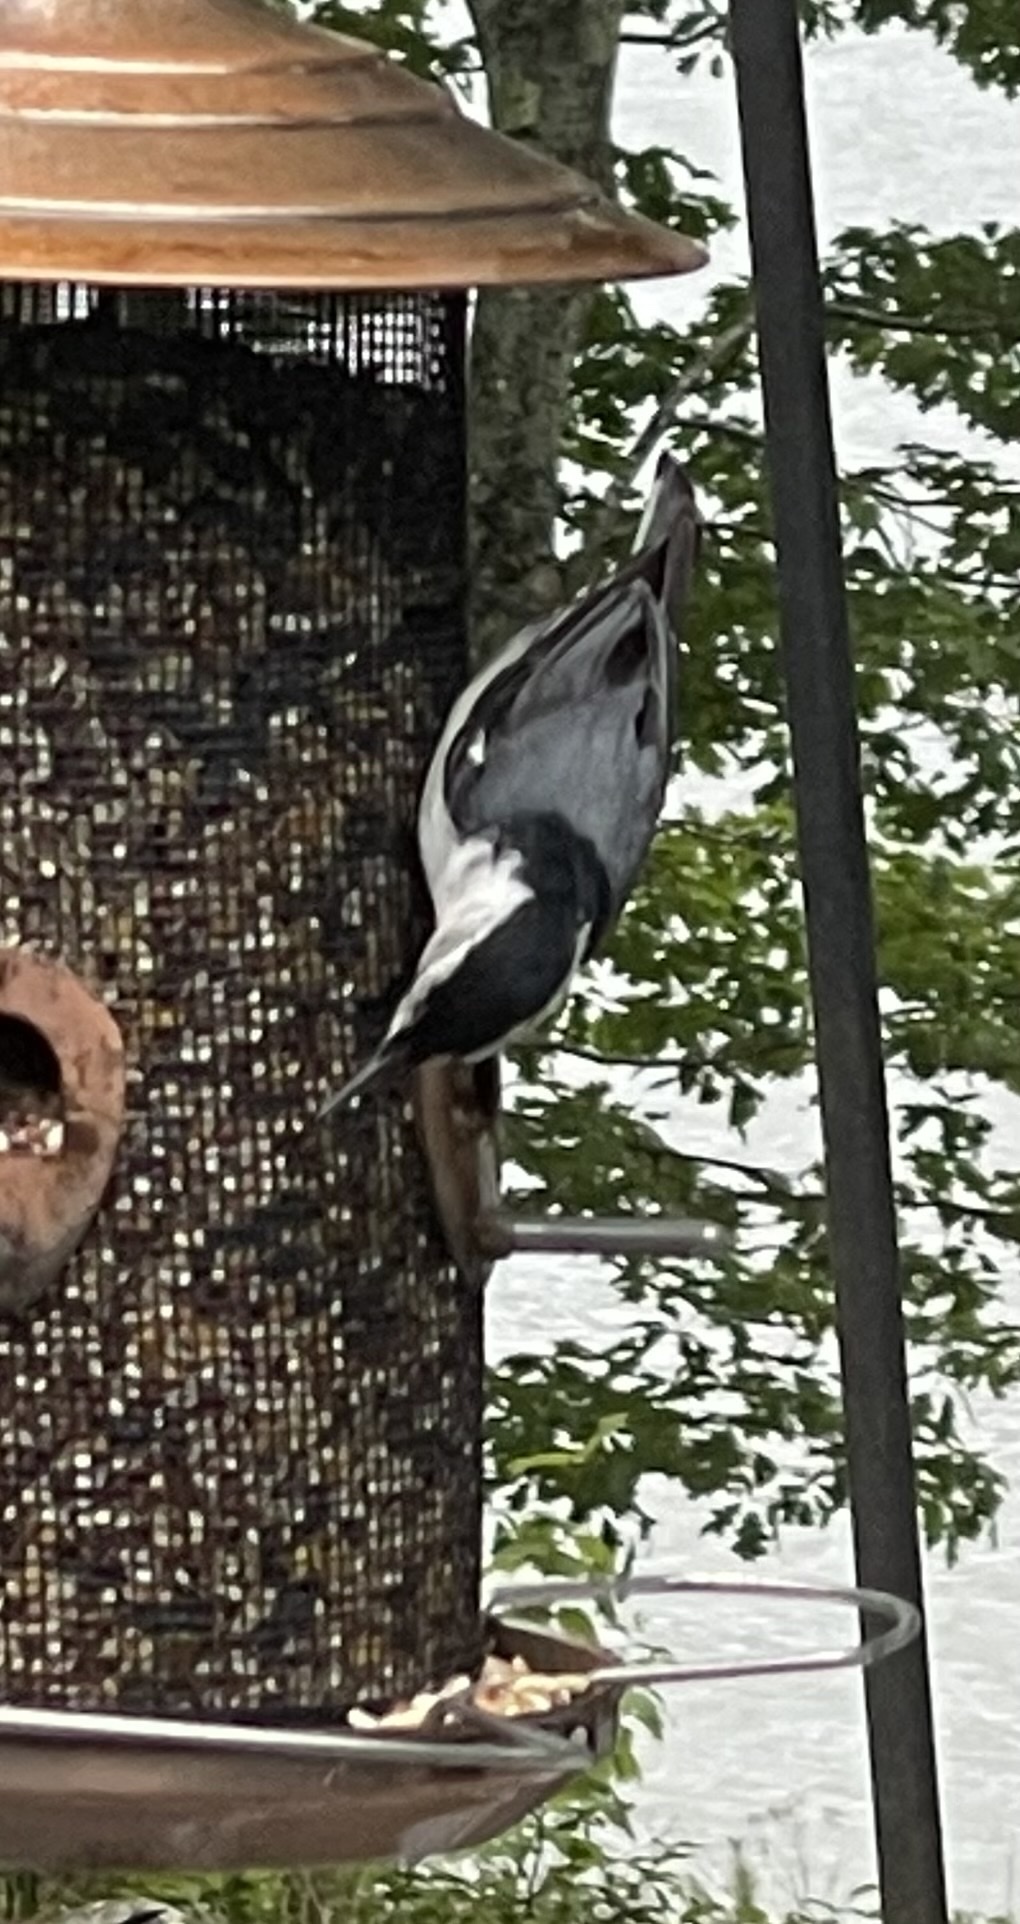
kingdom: Animalia
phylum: Chordata
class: Aves
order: Passeriformes
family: Sittidae
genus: Sitta
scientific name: Sitta carolinensis
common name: White-breasted nuthatch
